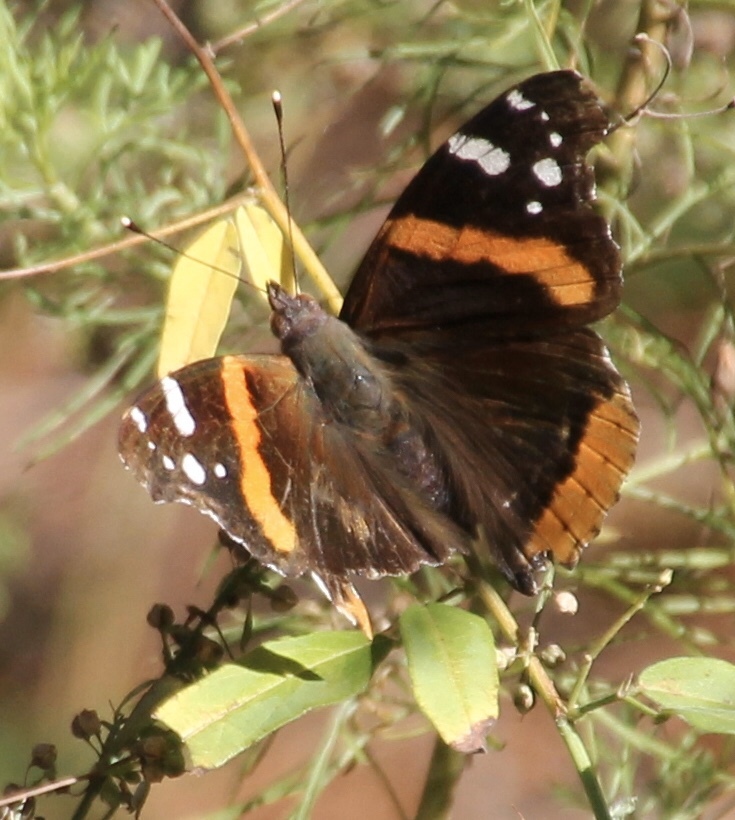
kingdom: Animalia
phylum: Arthropoda
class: Insecta
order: Lepidoptera
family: Nymphalidae
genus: Vanessa
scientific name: Vanessa atalanta
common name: Red admiral
